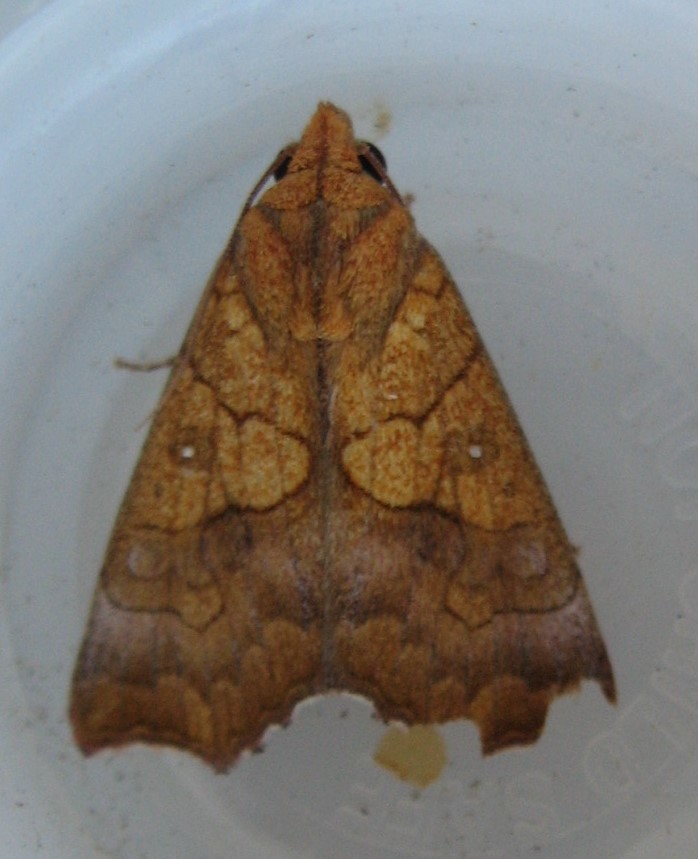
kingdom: Animalia
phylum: Arthropoda
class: Insecta
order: Lepidoptera
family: Erebidae
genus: Anomis
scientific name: Anomis erosa
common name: Yellow scallop moth
